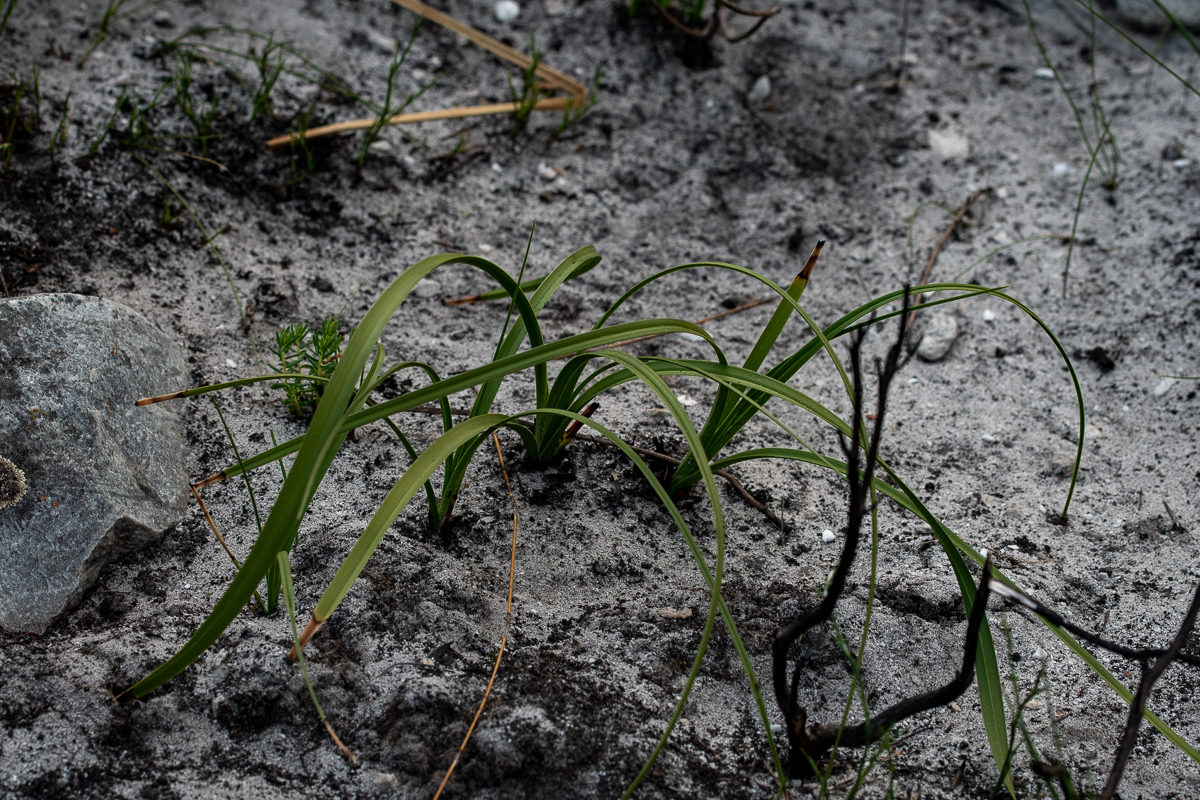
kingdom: Plantae
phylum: Tracheophyta
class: Liliopsida
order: Asparagales
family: Lanariaceae
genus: Lanaria
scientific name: Lanaria lanata
